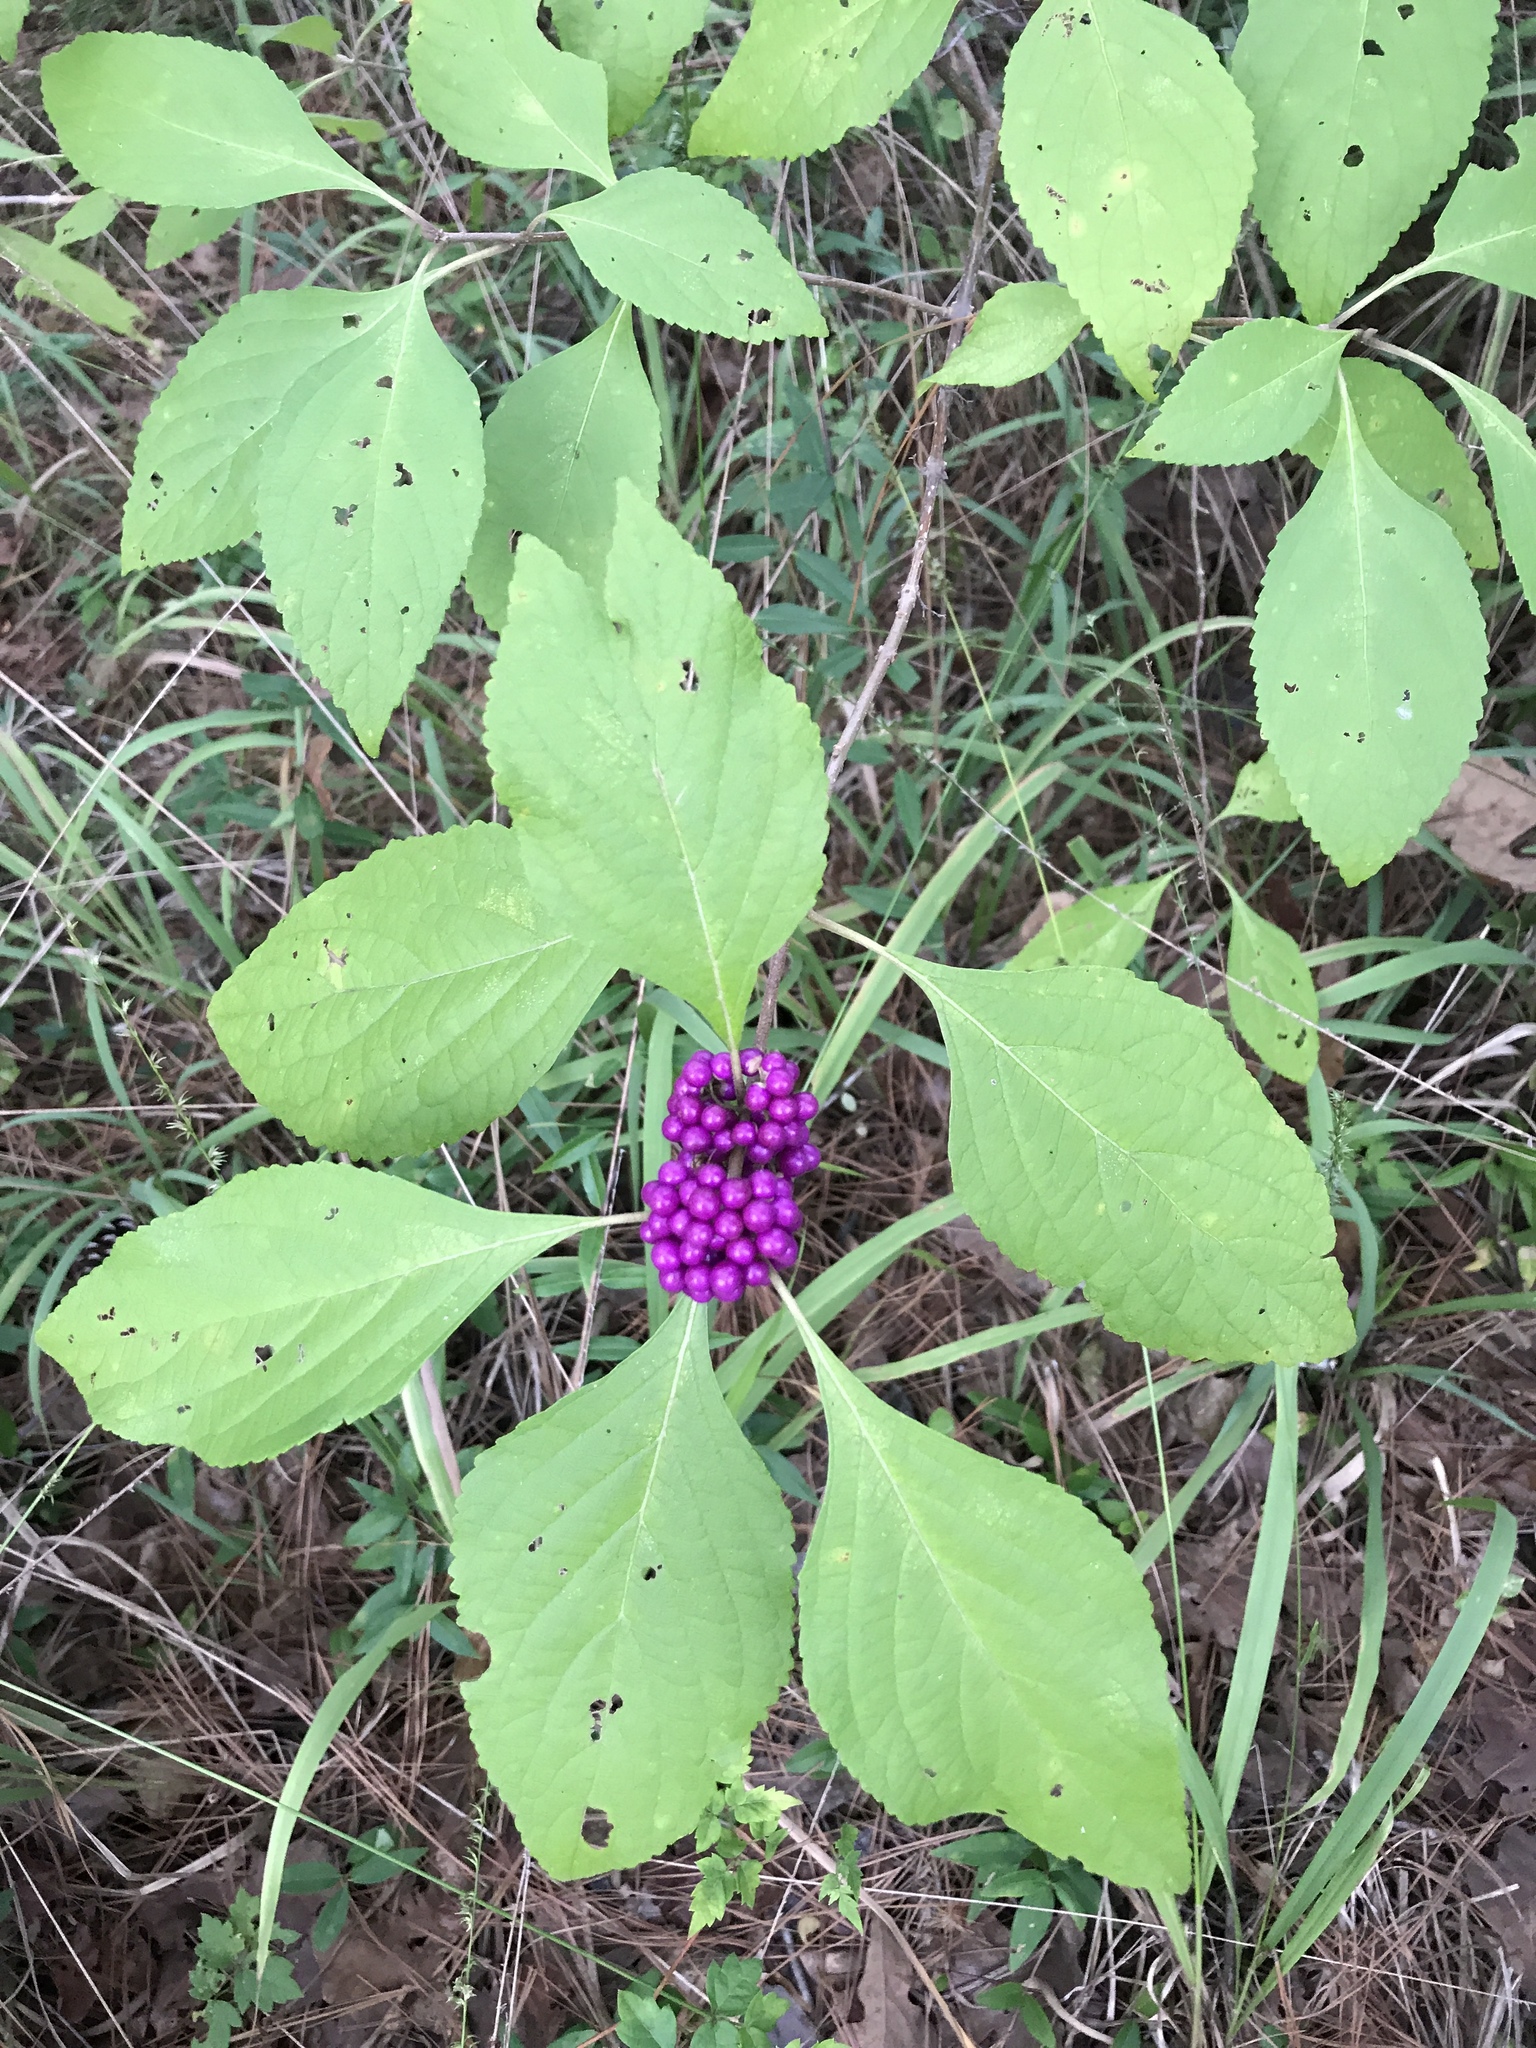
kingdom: Plantae
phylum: Tracheophyta
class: Magnoliopsida
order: Lamiales
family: Lamiaceae
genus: Callicarpa
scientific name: Callicarpa americana
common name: American beautyberry
